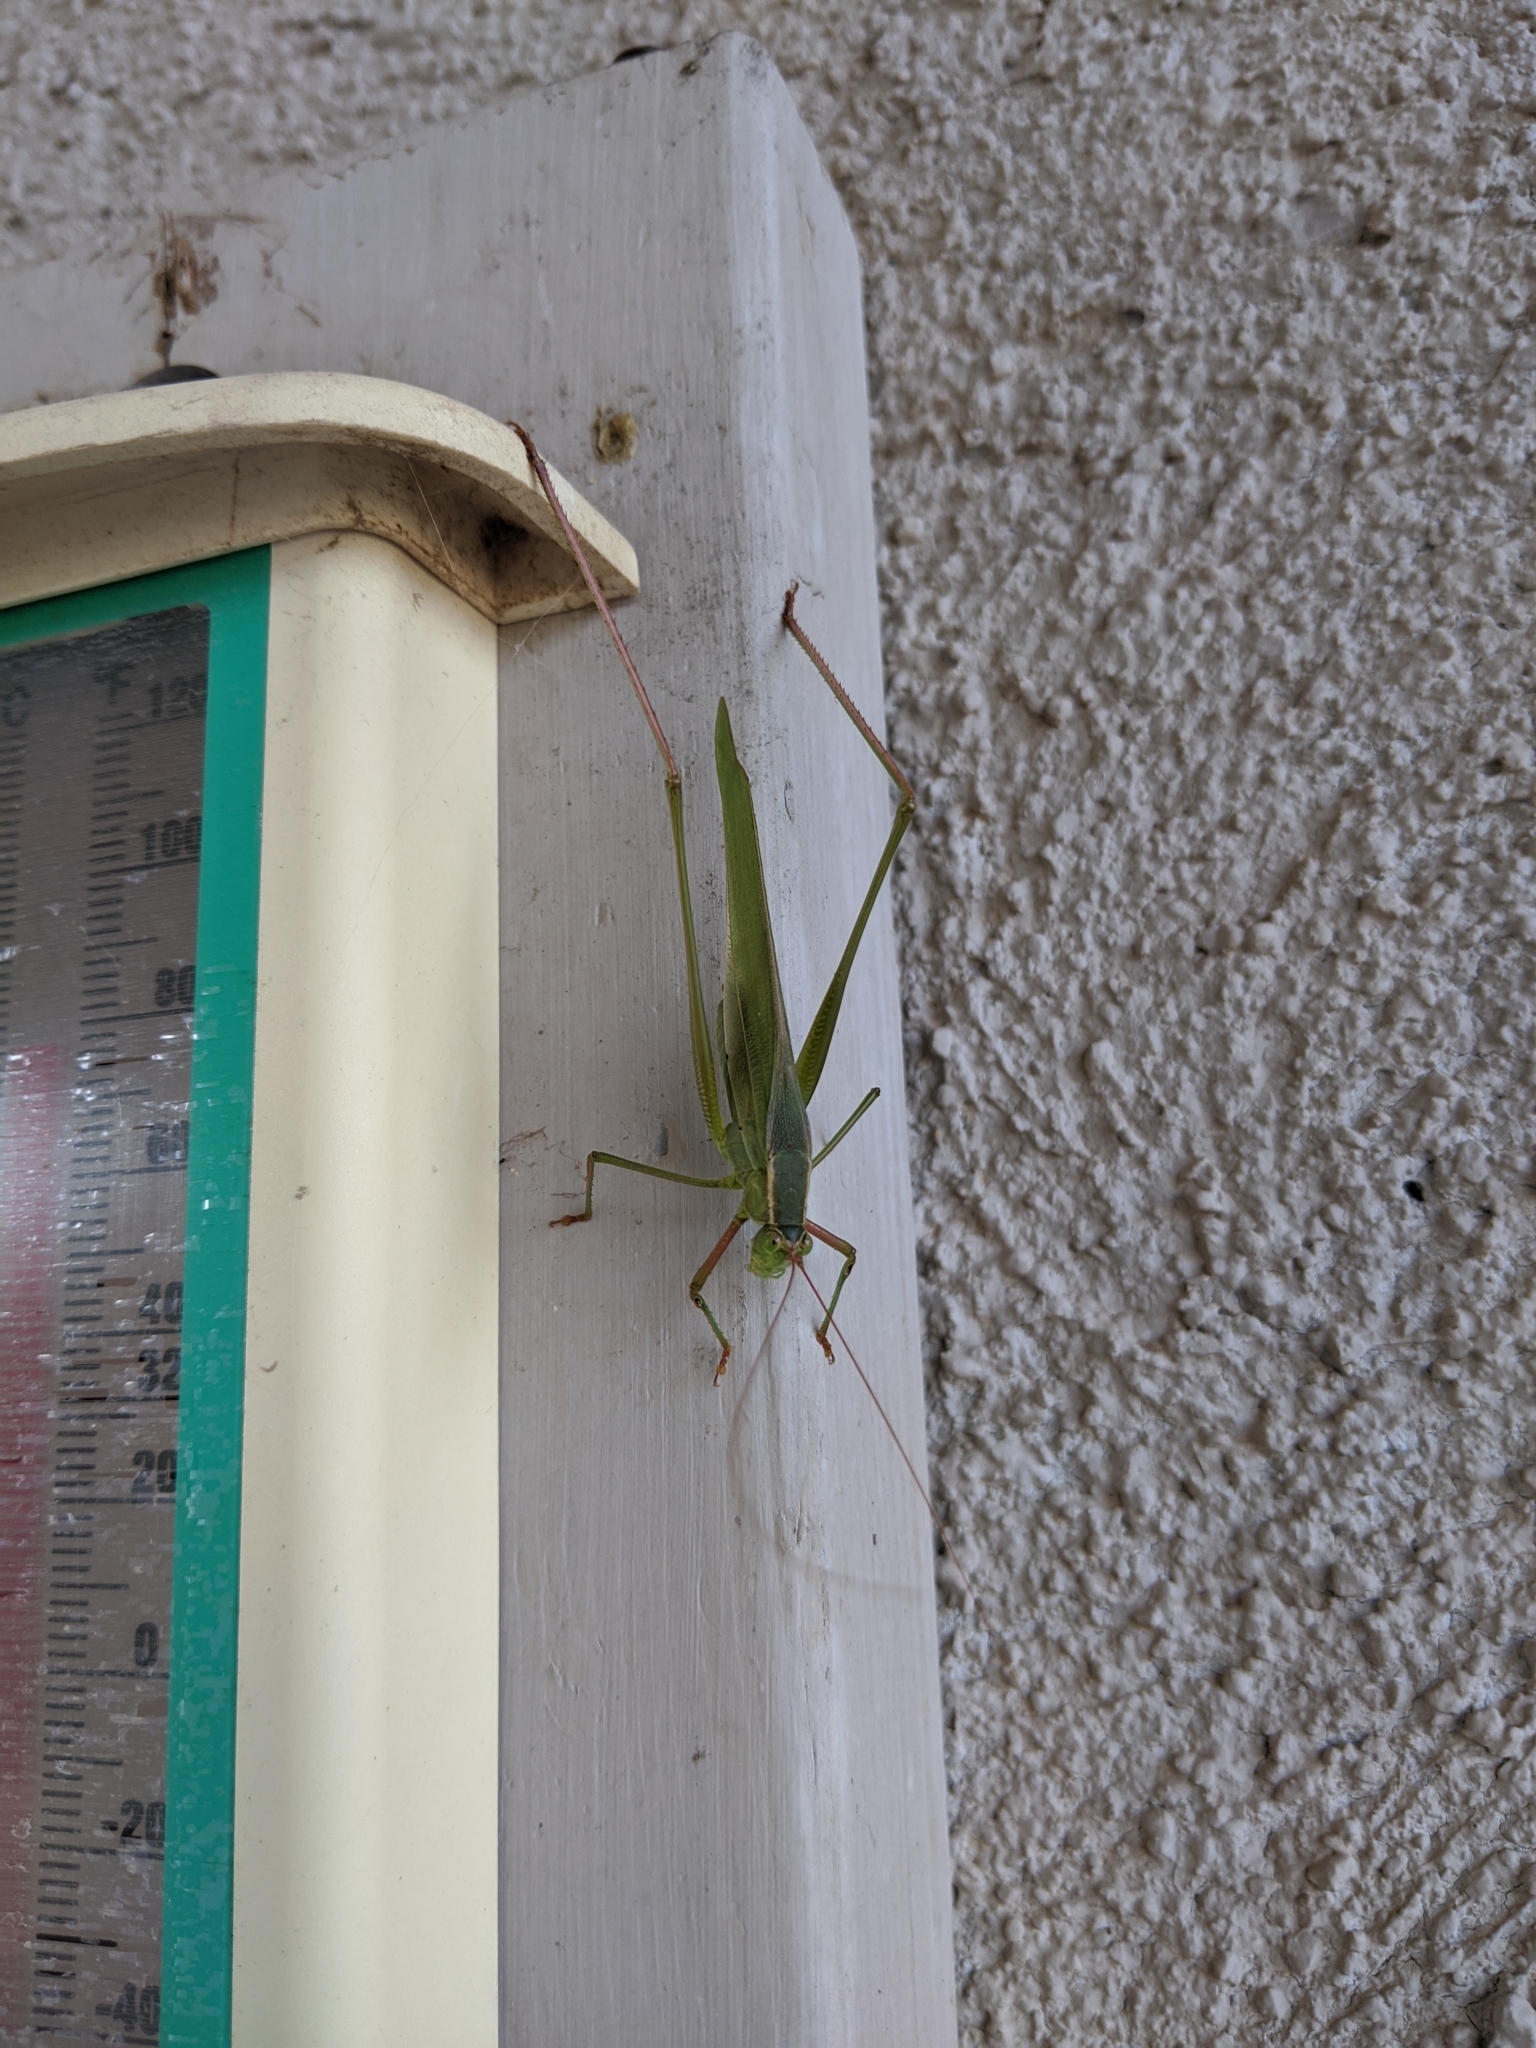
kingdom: Animalia
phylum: Arthropoda
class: Insecta
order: Orthoptera
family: Tettigoniidae
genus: Scudderia
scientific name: Scudderia mexicana
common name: Mexican bush katydid
